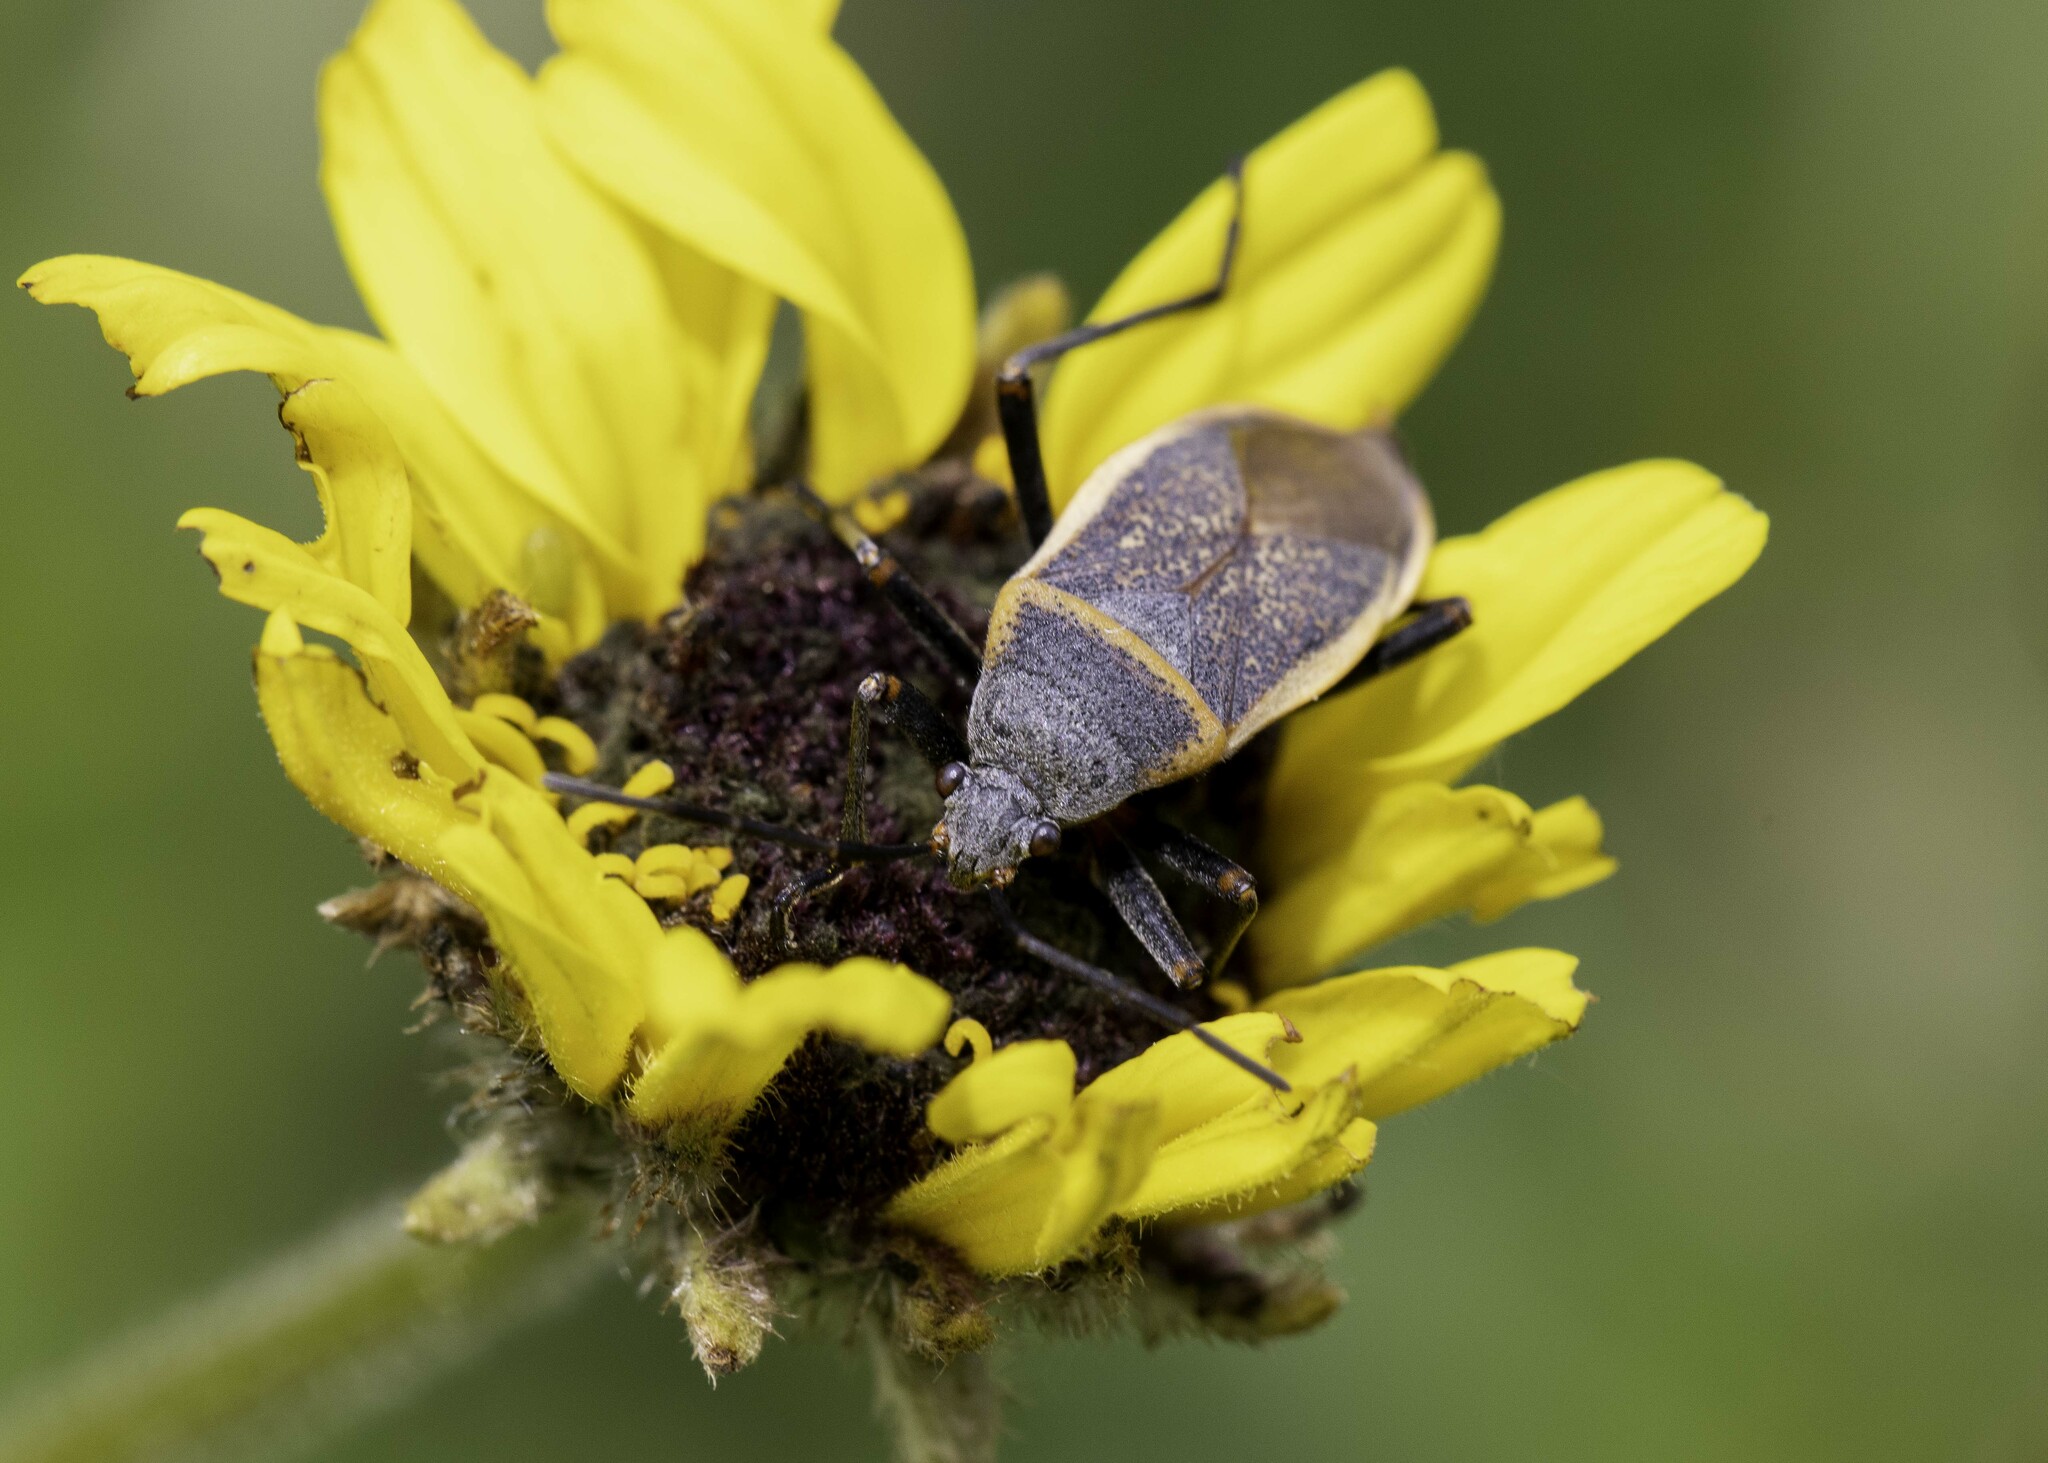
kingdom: Animalia
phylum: Arthropoda
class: Insecta
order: Hemiptera
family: Largidae
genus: Largus
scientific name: Largus californicus
